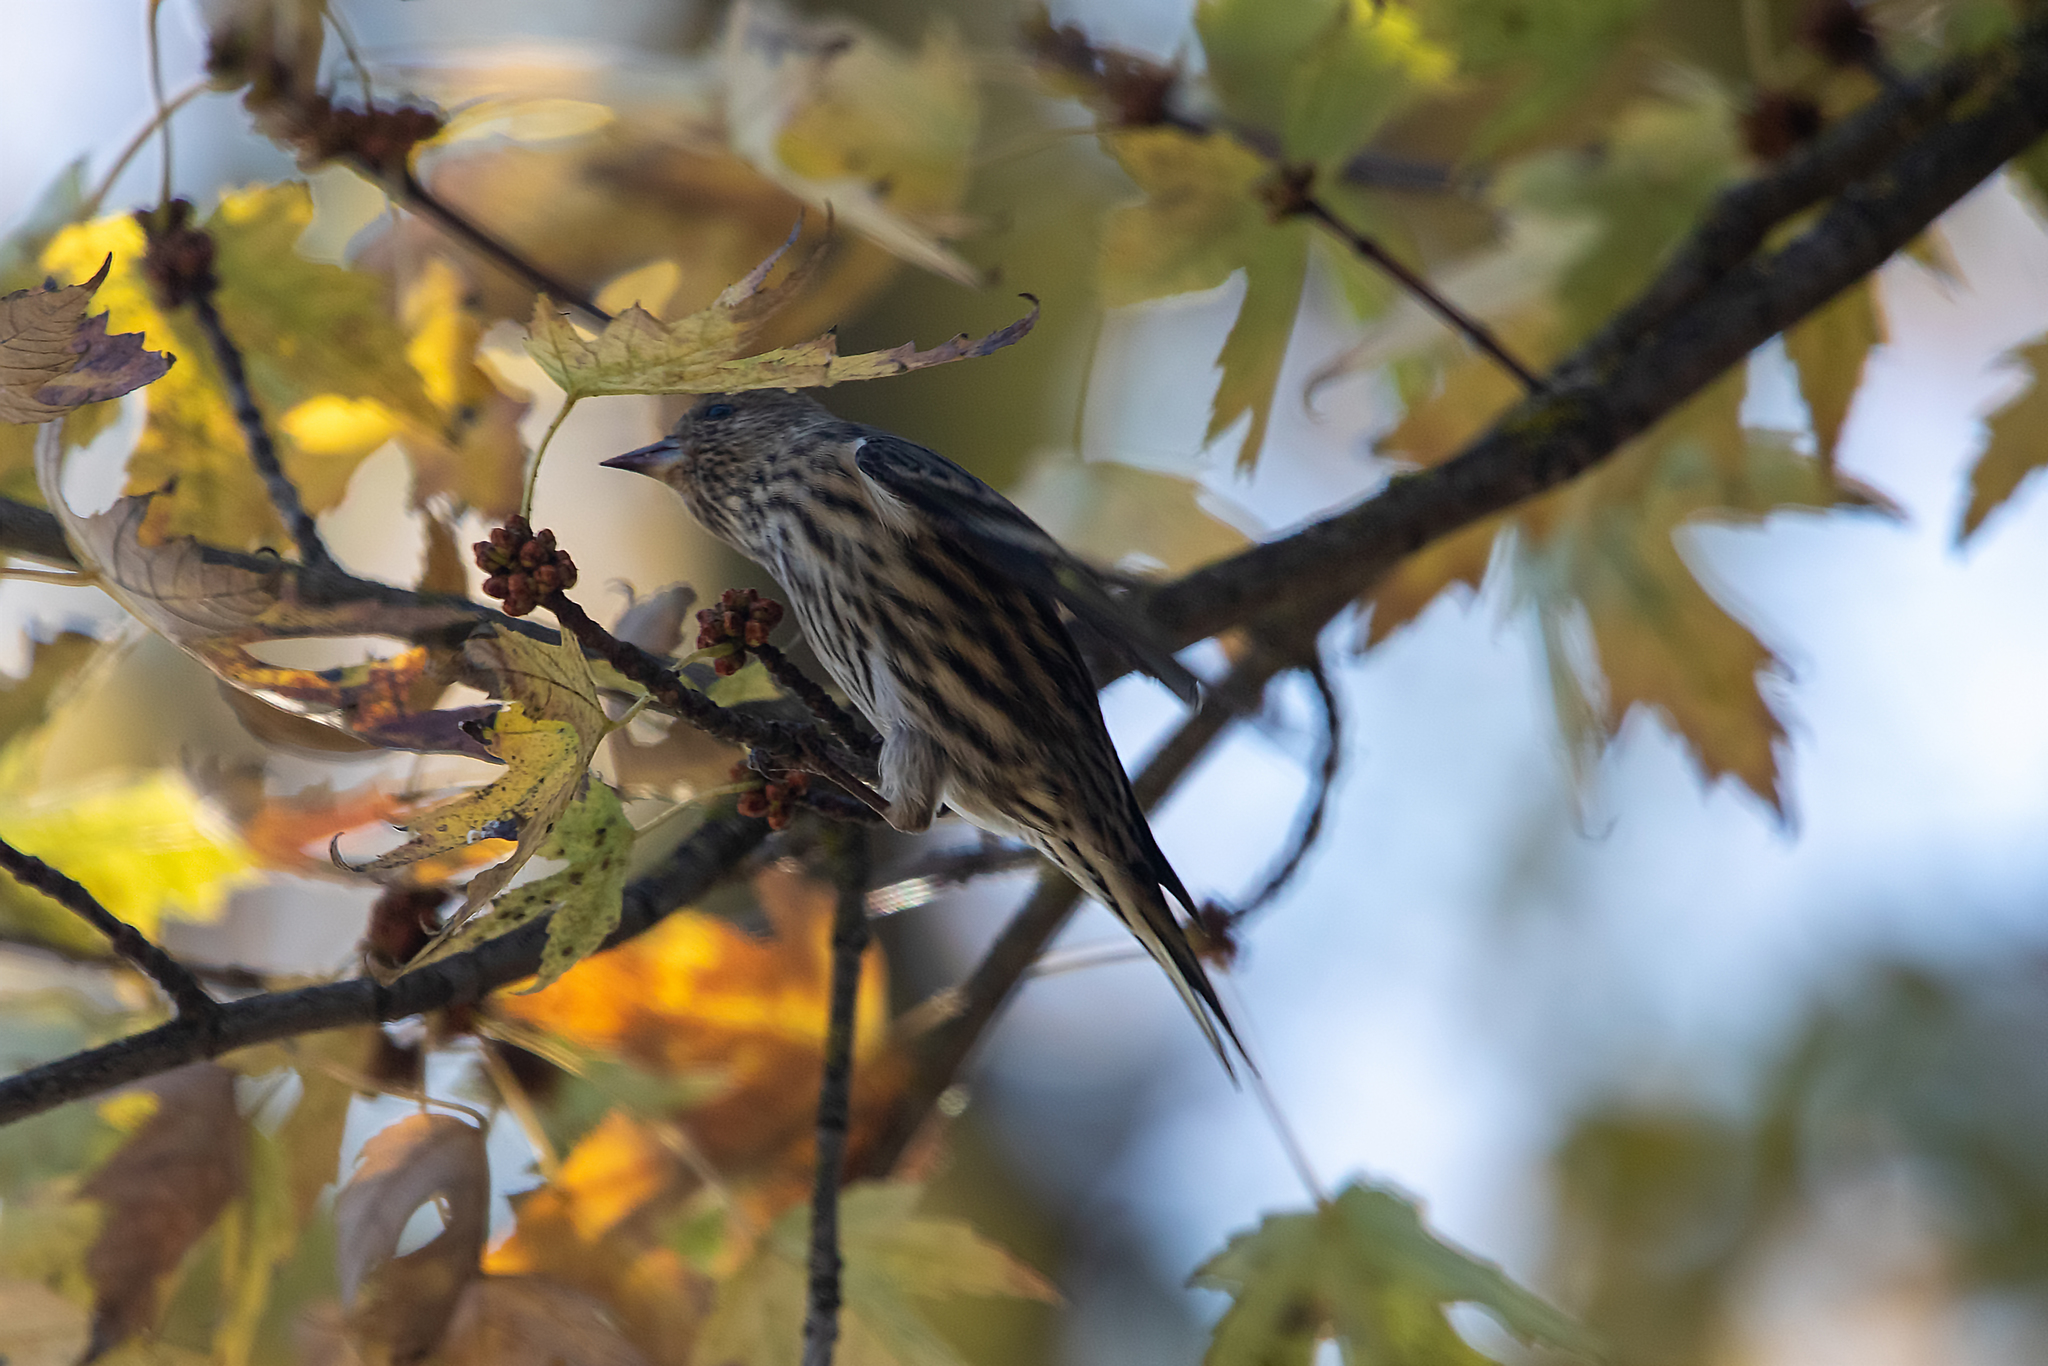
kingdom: Animalia
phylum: Chordata
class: Aves
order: Passeriformes
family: Fringillidae
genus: Spinus
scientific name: Spinus pinus
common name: Pine siskin
